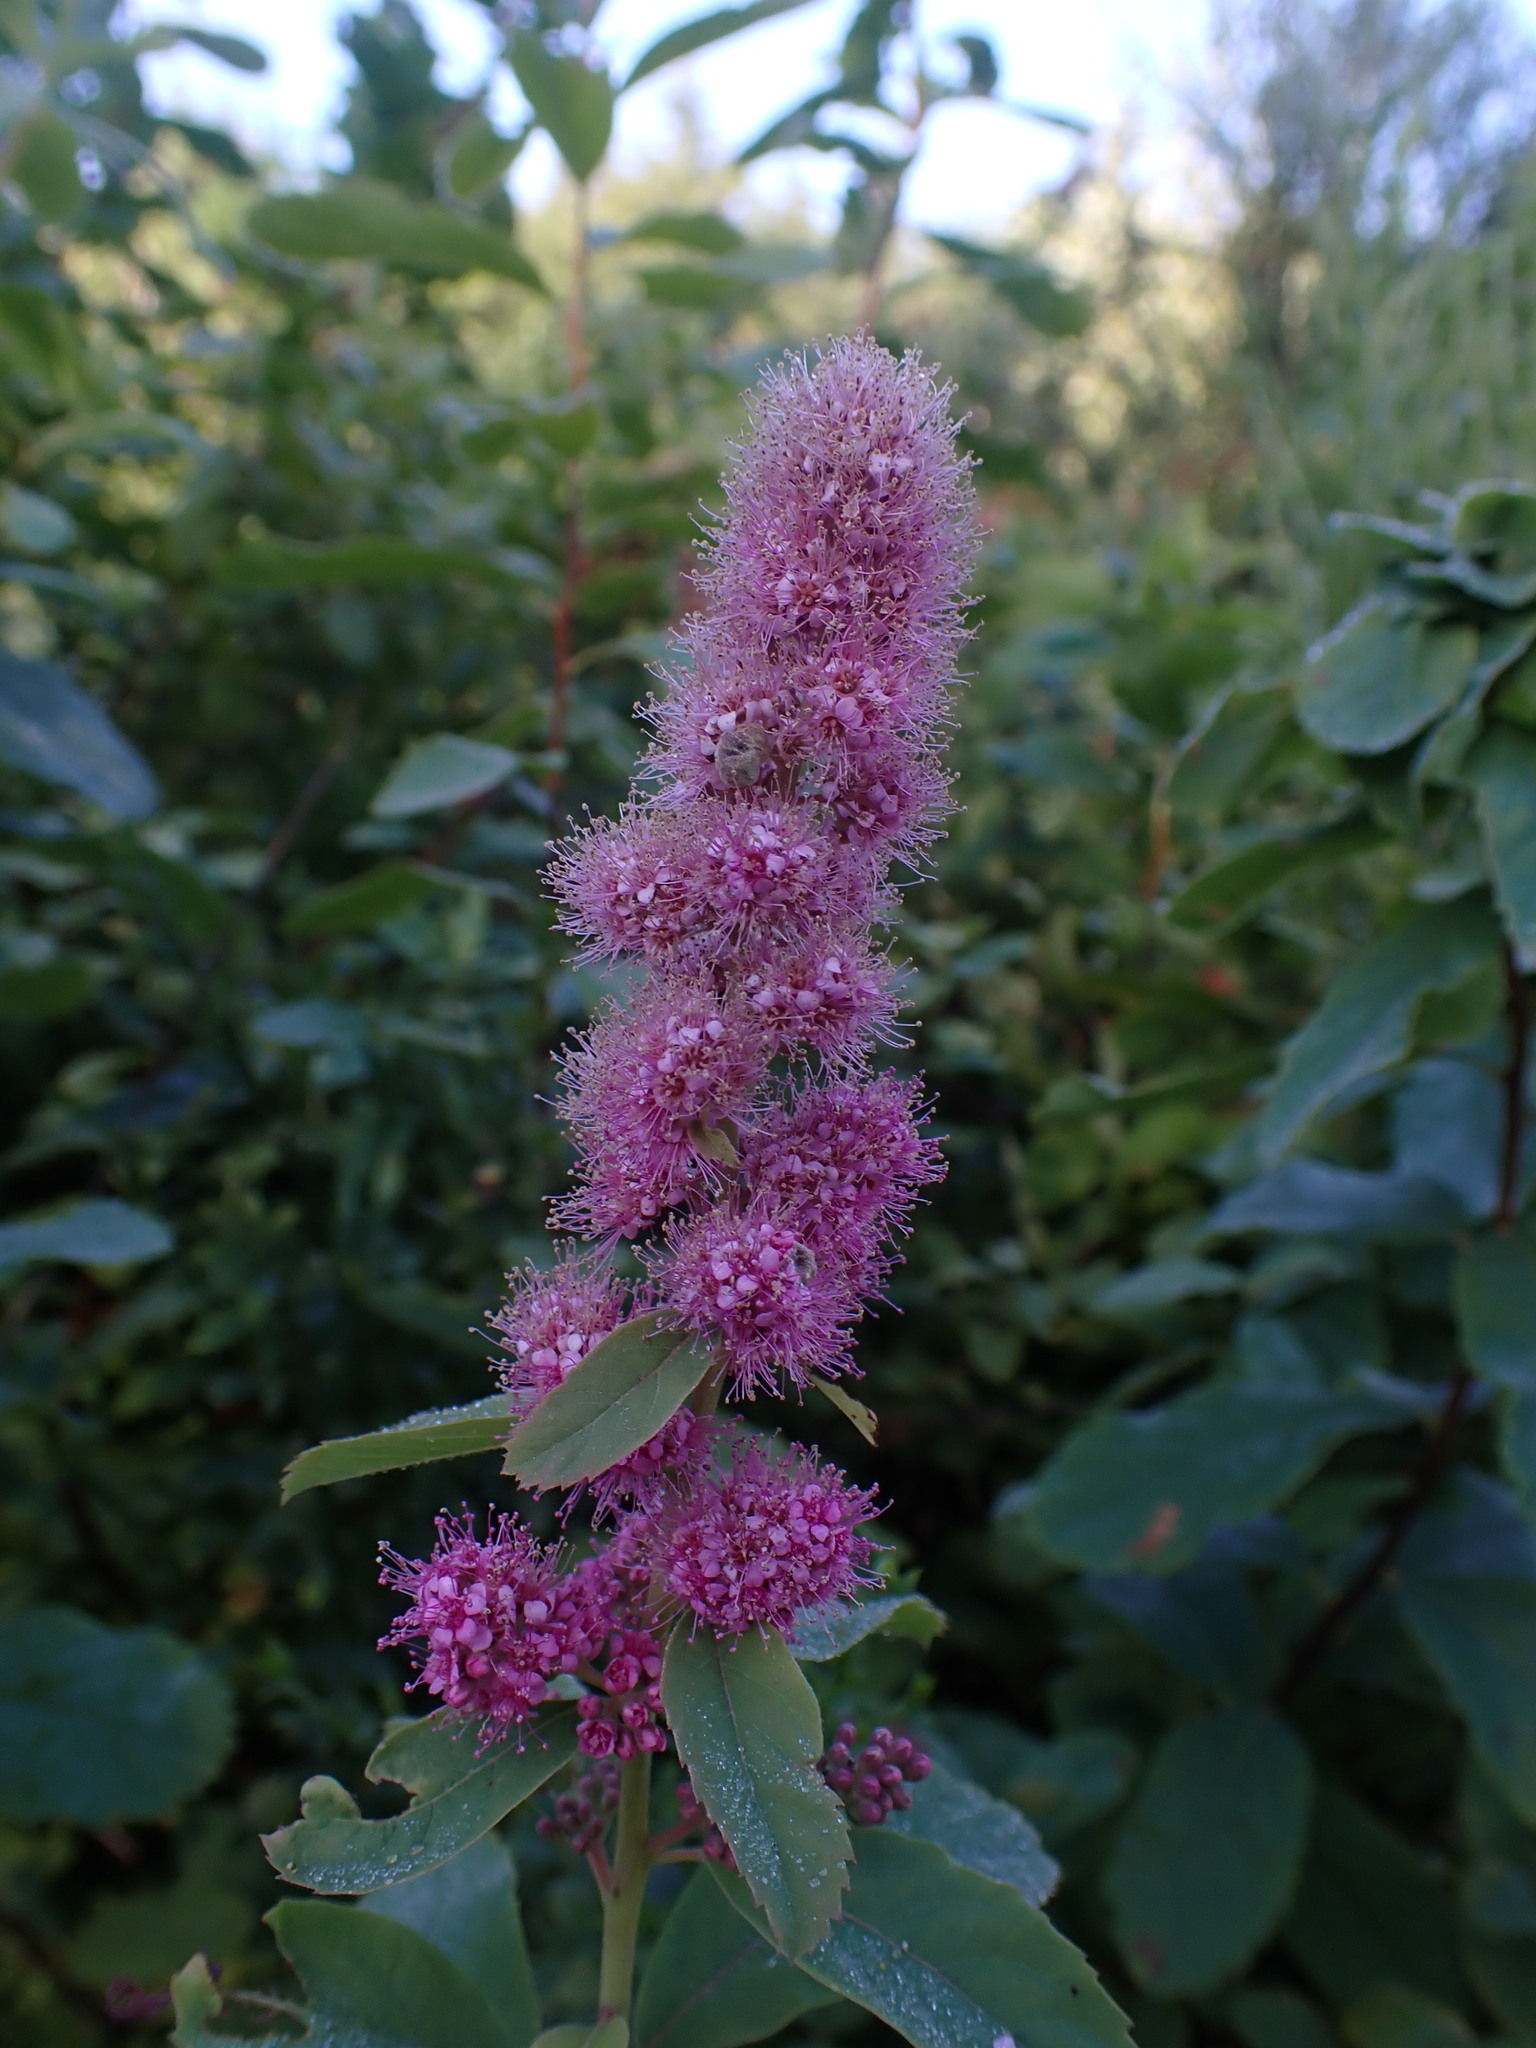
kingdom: Plantae
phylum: Tracheophyta
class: Magnoliopsida
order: Rosales
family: Rosaceae
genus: Spiraea
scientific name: Spiraea douglasii
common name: Steeplebush
